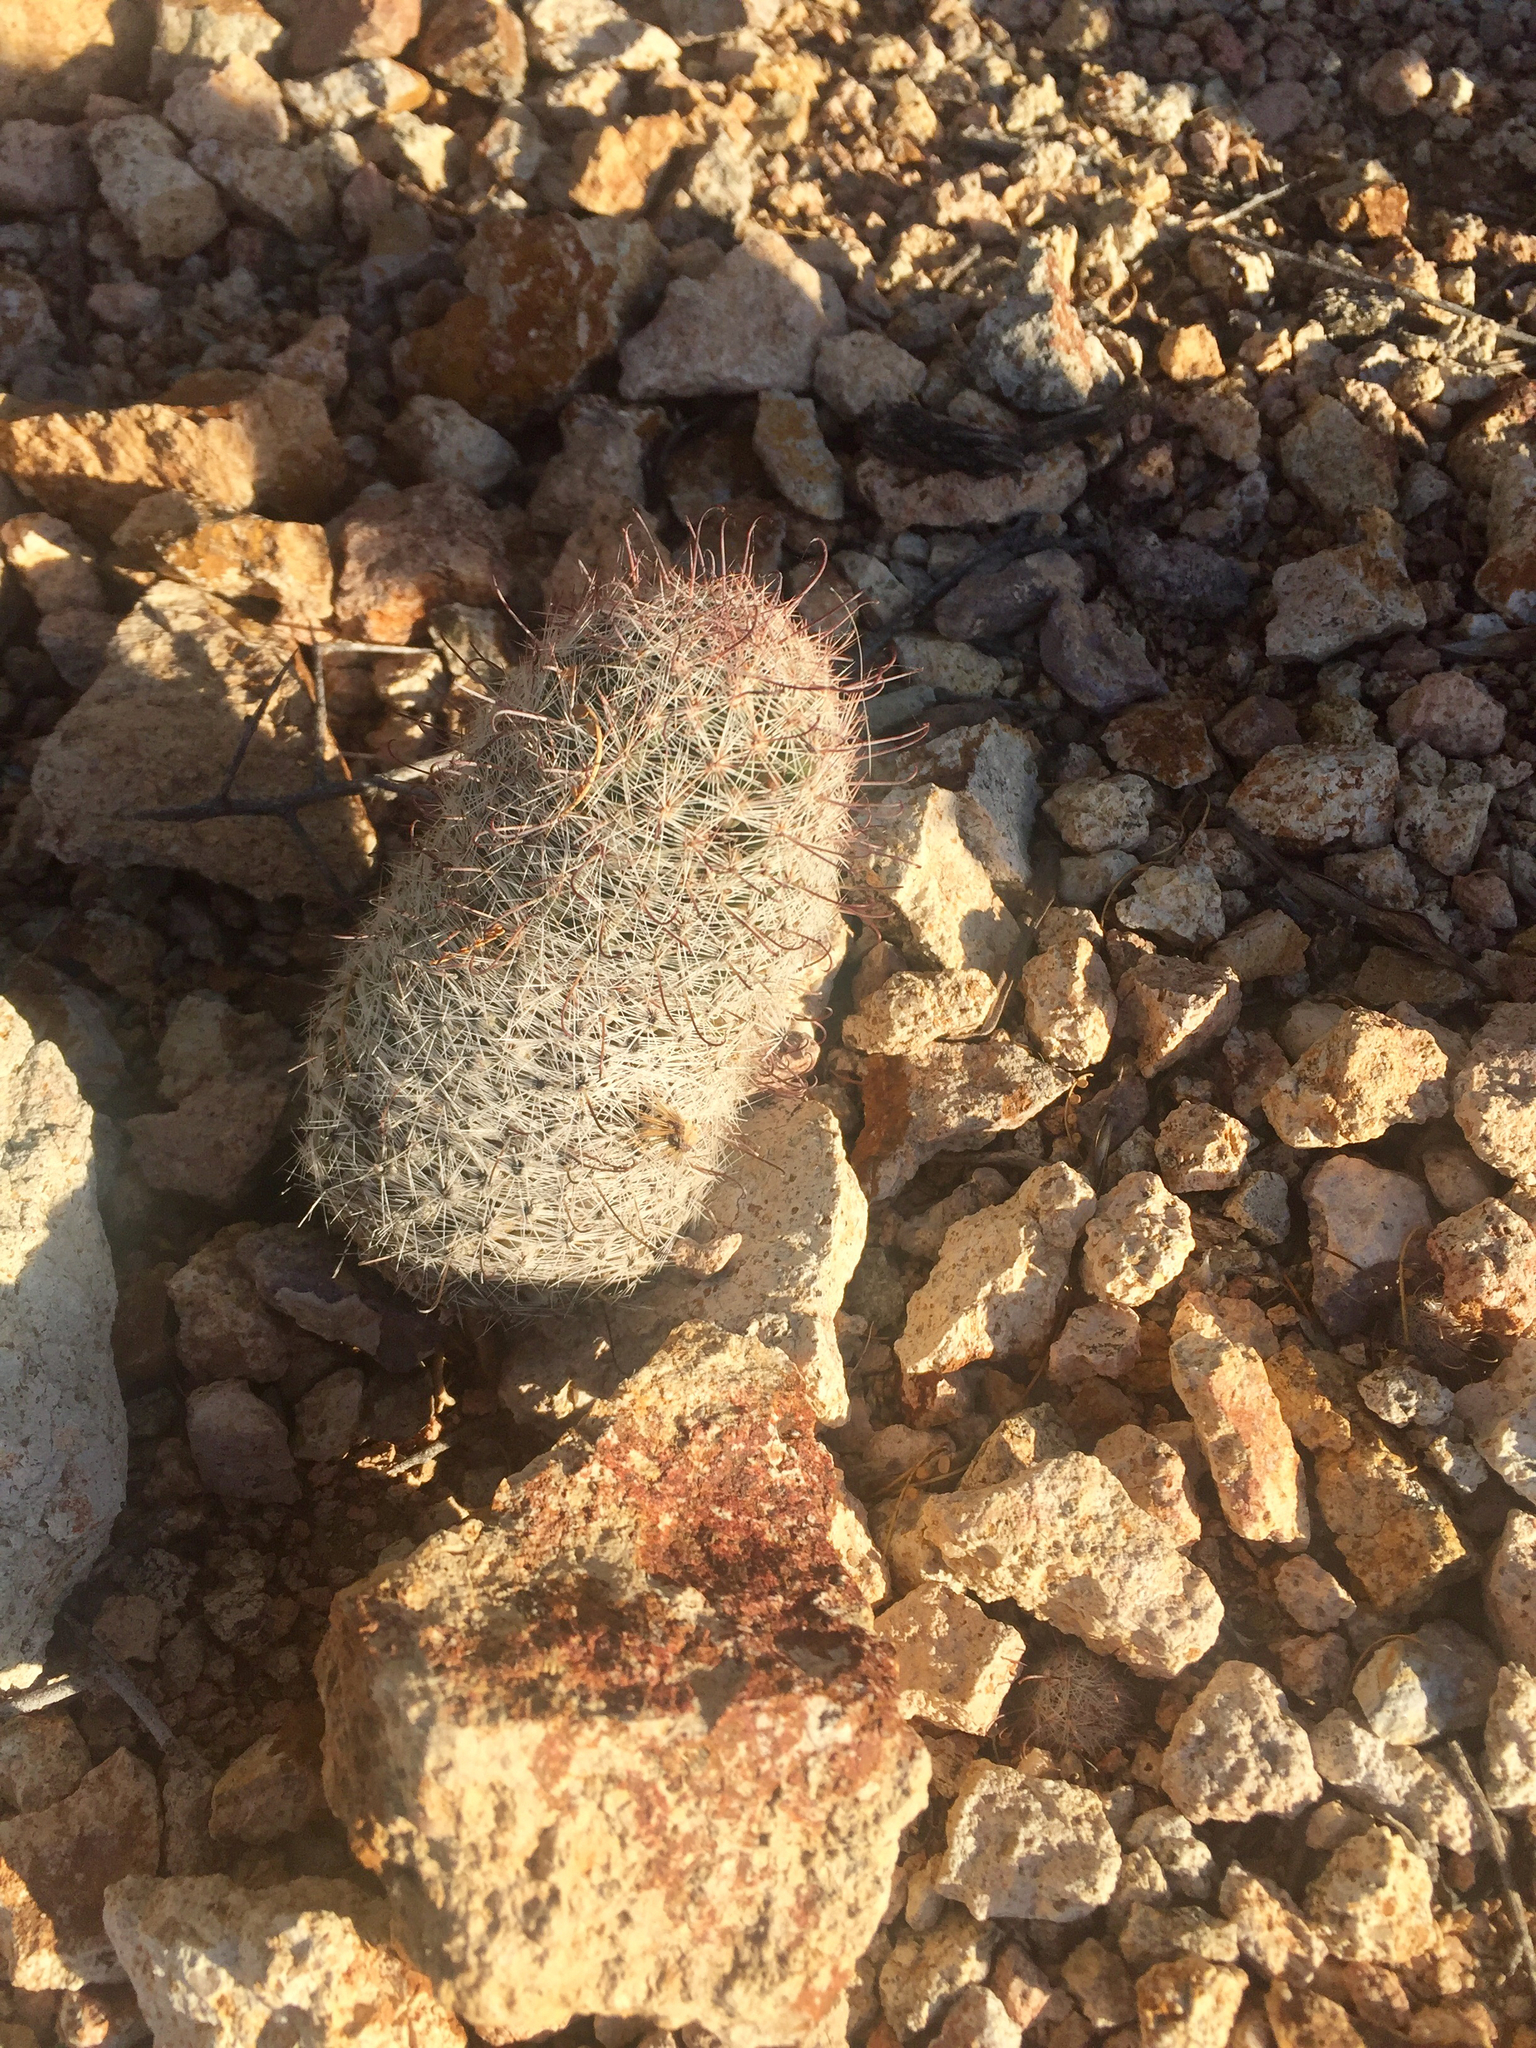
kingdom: Plantae
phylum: Tracheophyta
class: Magnoliopsida
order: Caryophyllales
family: Cactaceae
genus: Cochemiea
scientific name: Cochemiea grahamii
